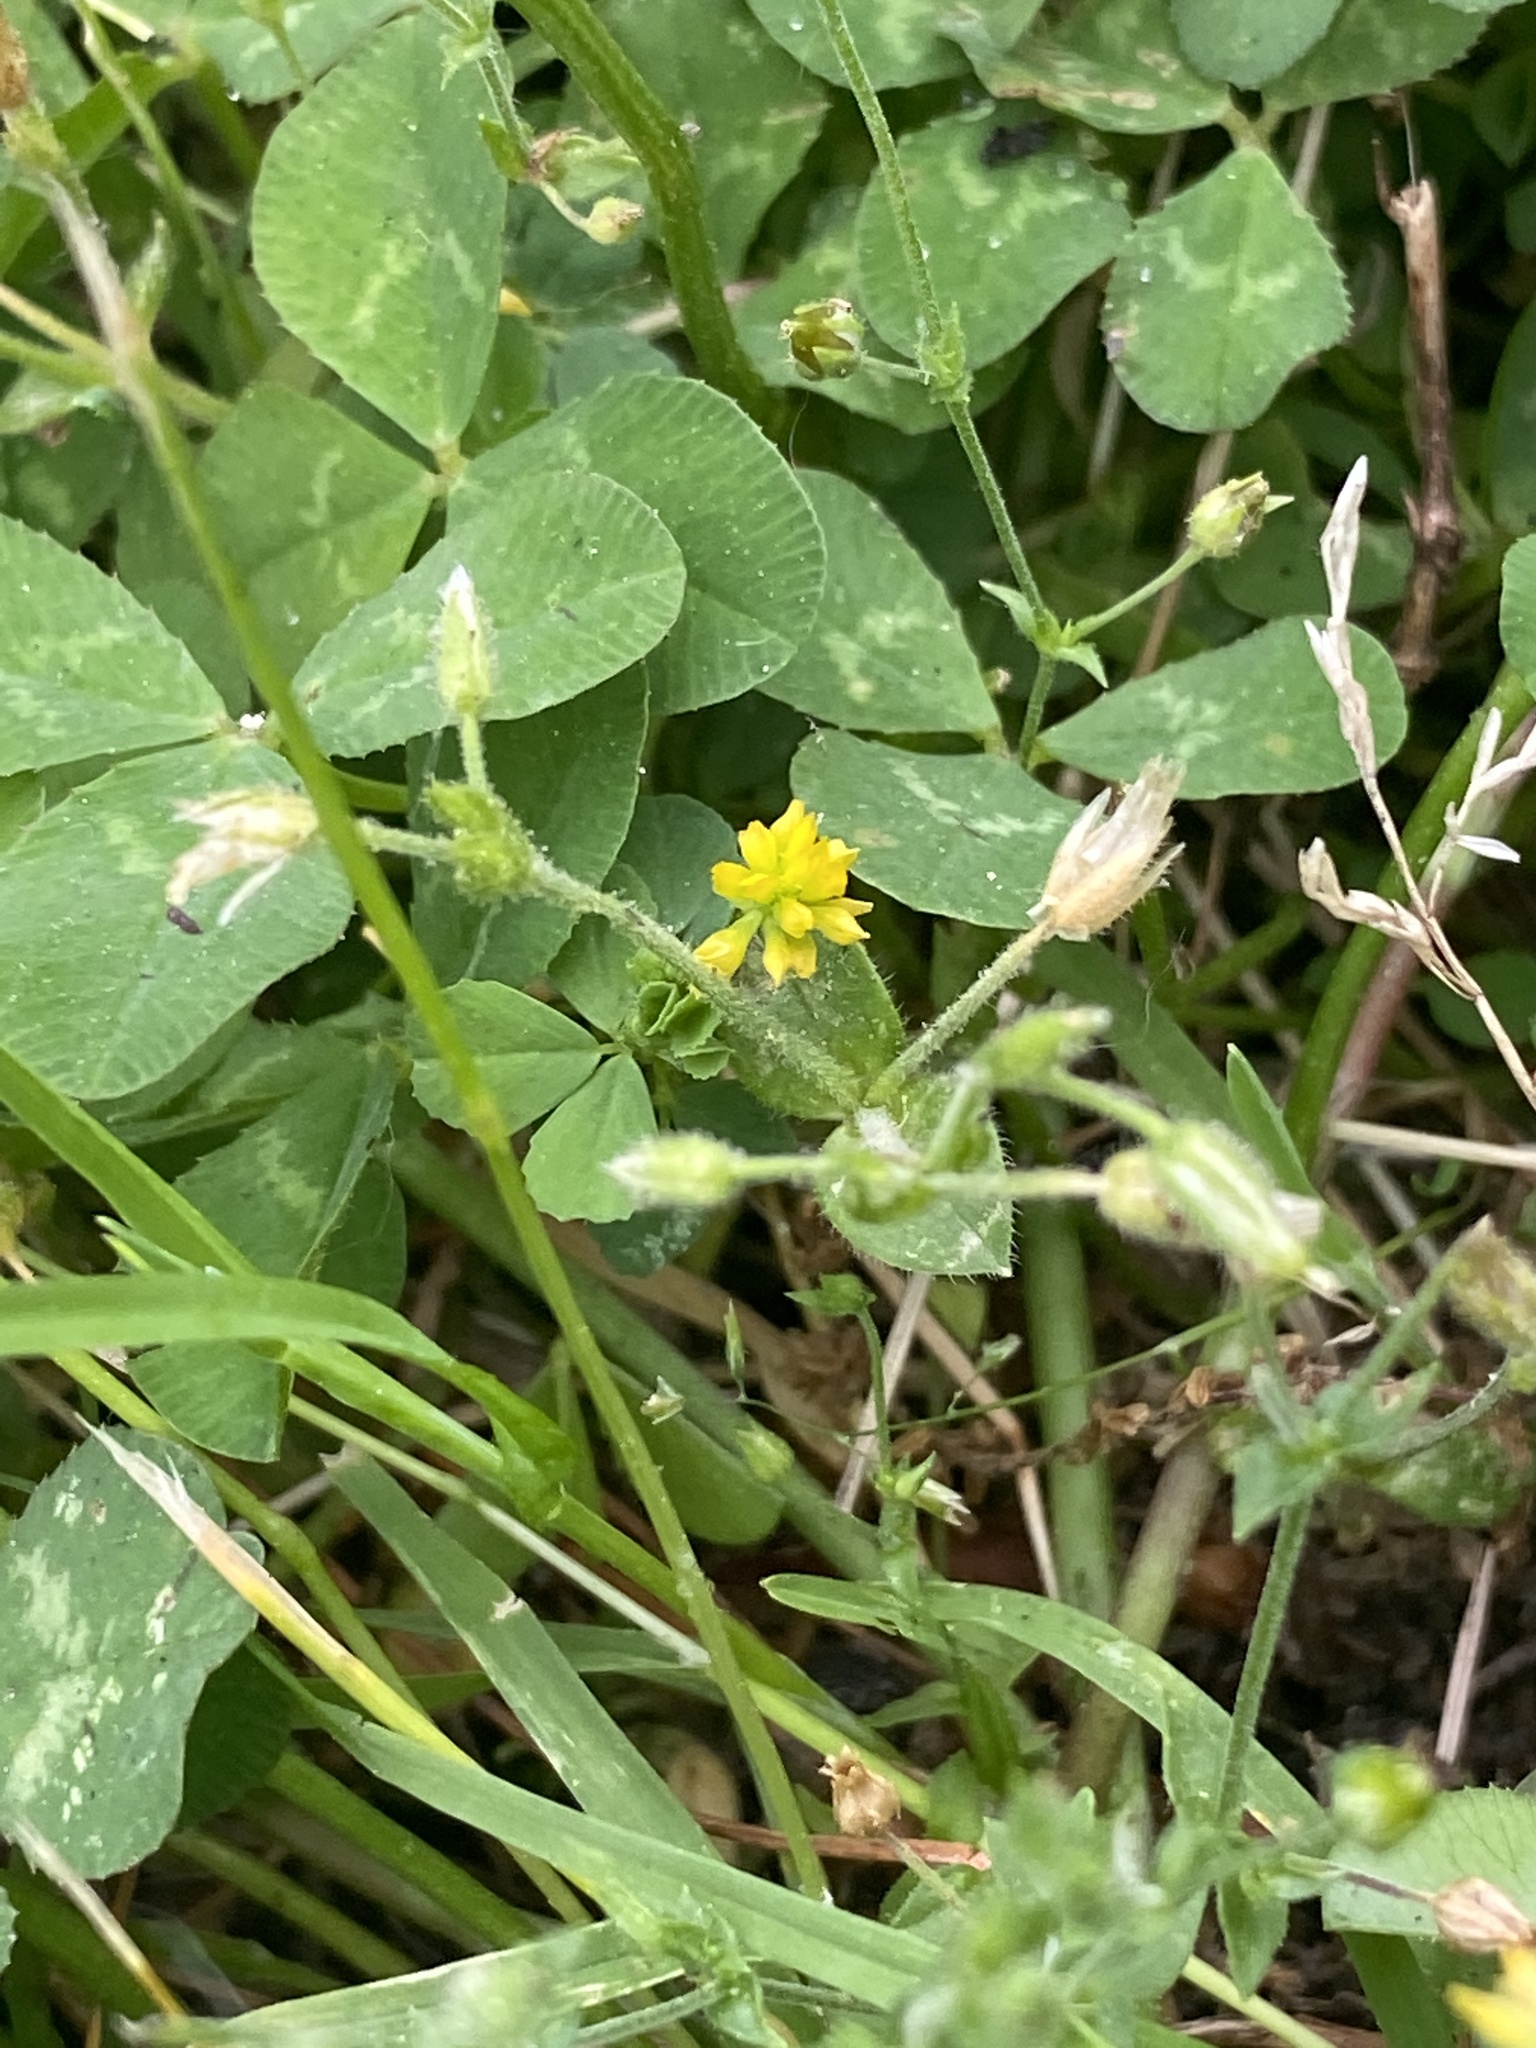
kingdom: Plantae
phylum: Tracheophyta
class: Magnoliopsida
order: Fabales
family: Fabaceae
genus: Trifolium
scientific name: Trifolium dubium
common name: Suckling clover
